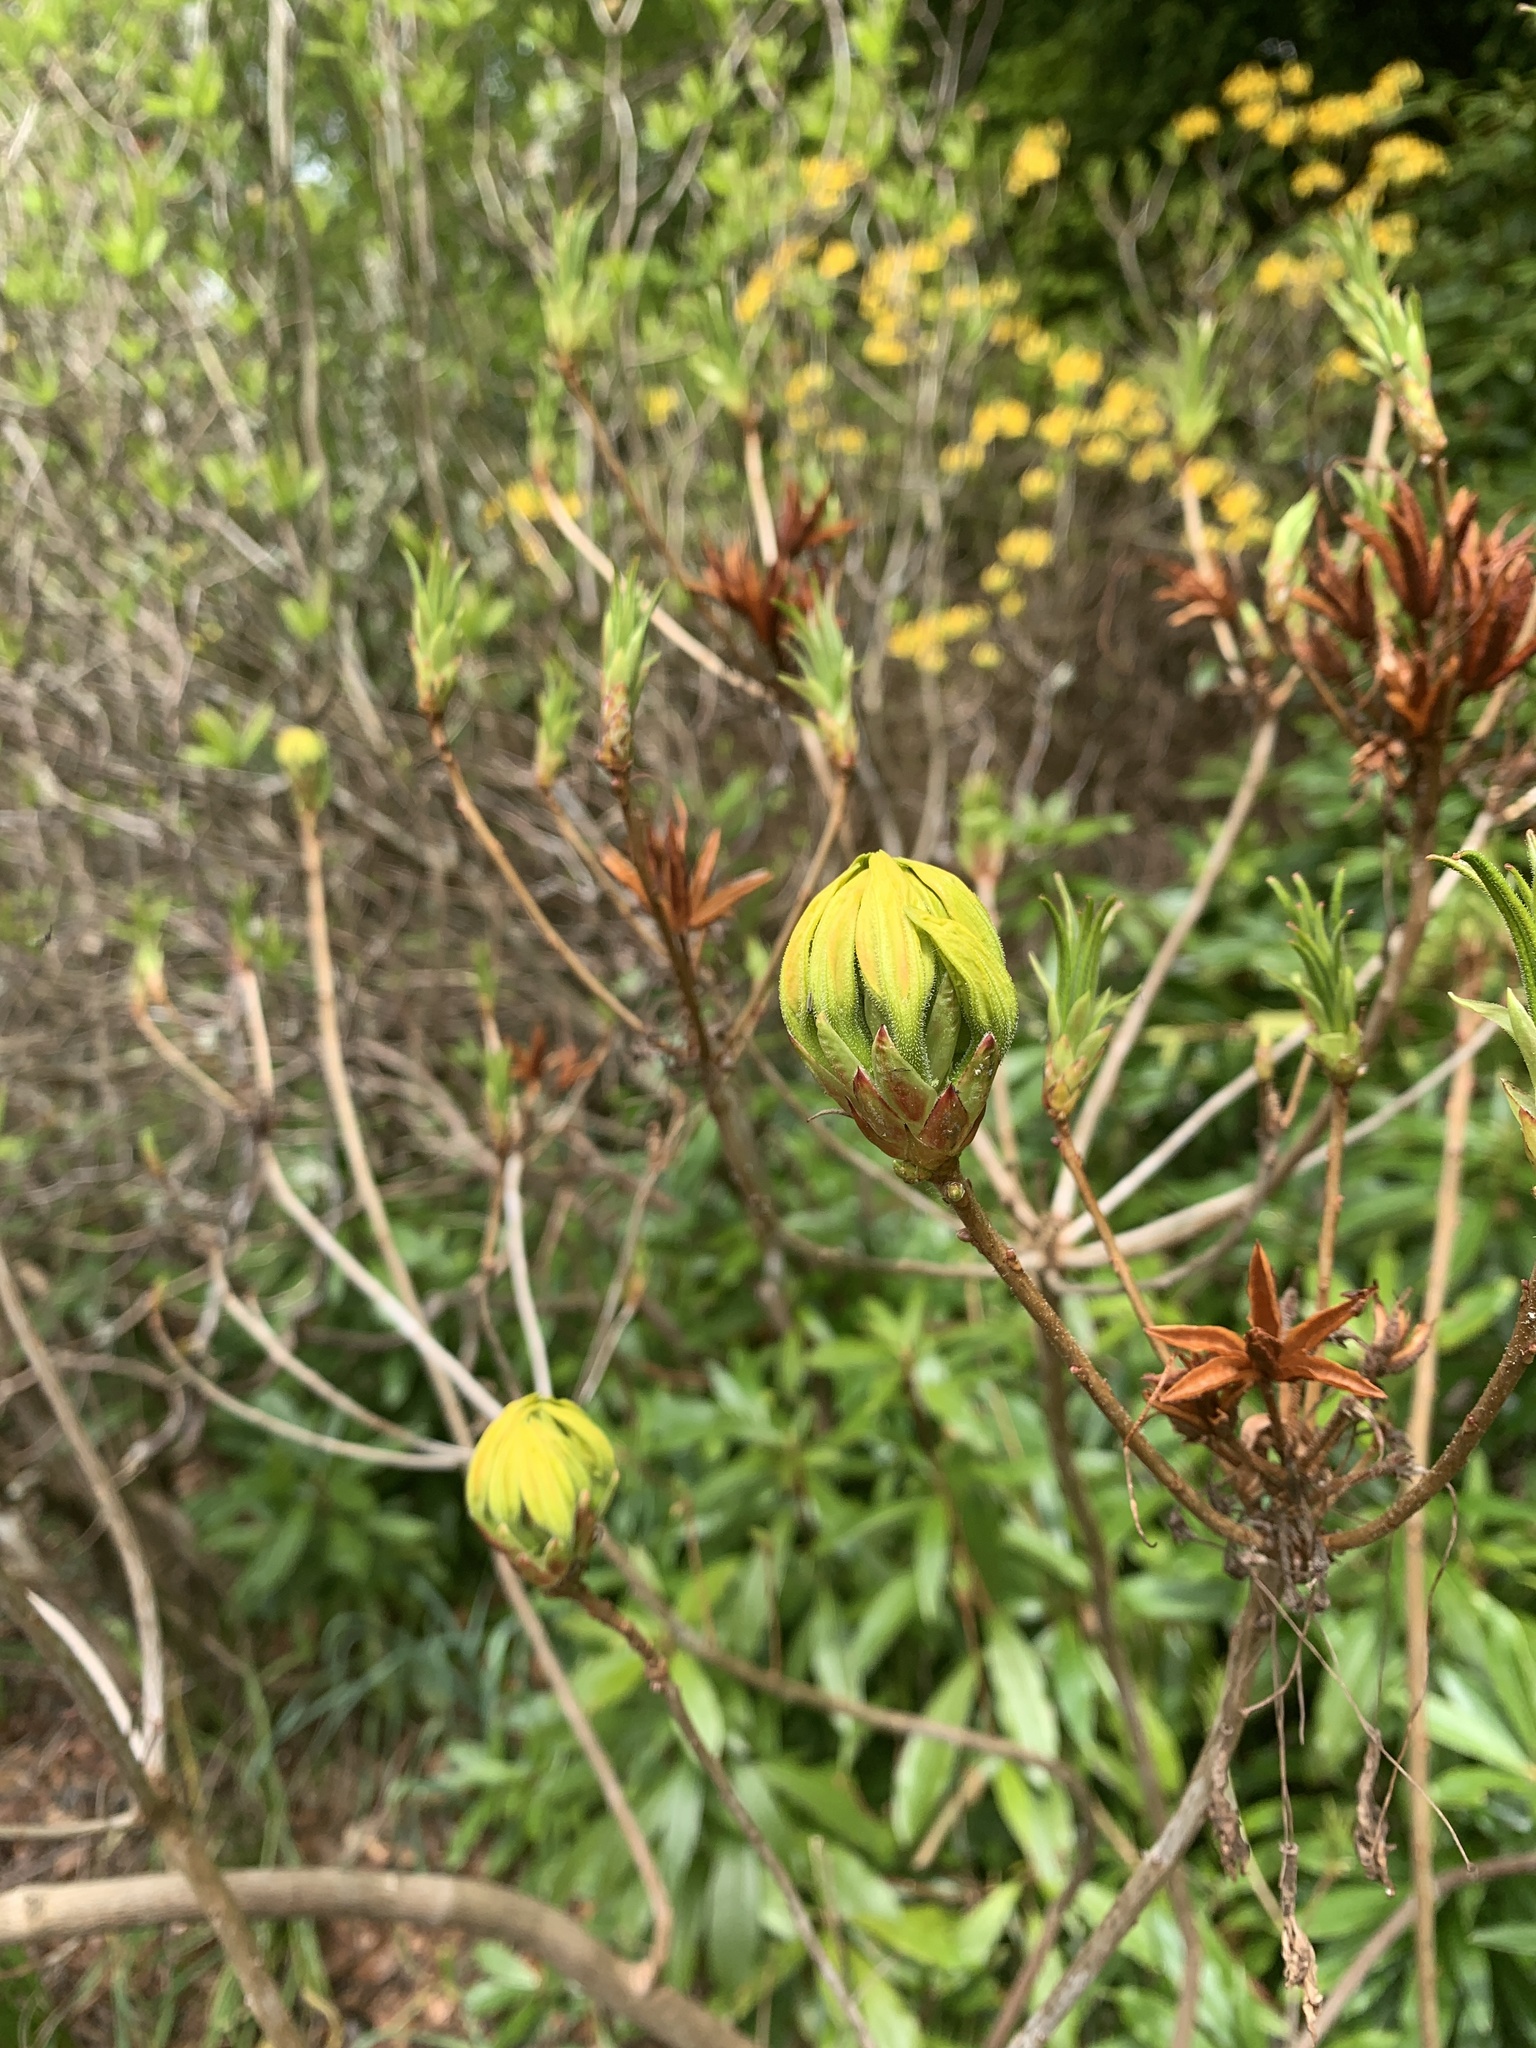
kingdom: Plantae
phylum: Tracheophyta
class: Magnoliopsida
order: Ericales
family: Ericaceae
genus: Rhododendron
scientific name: Rhododendron luteum
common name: Yellow azalea
